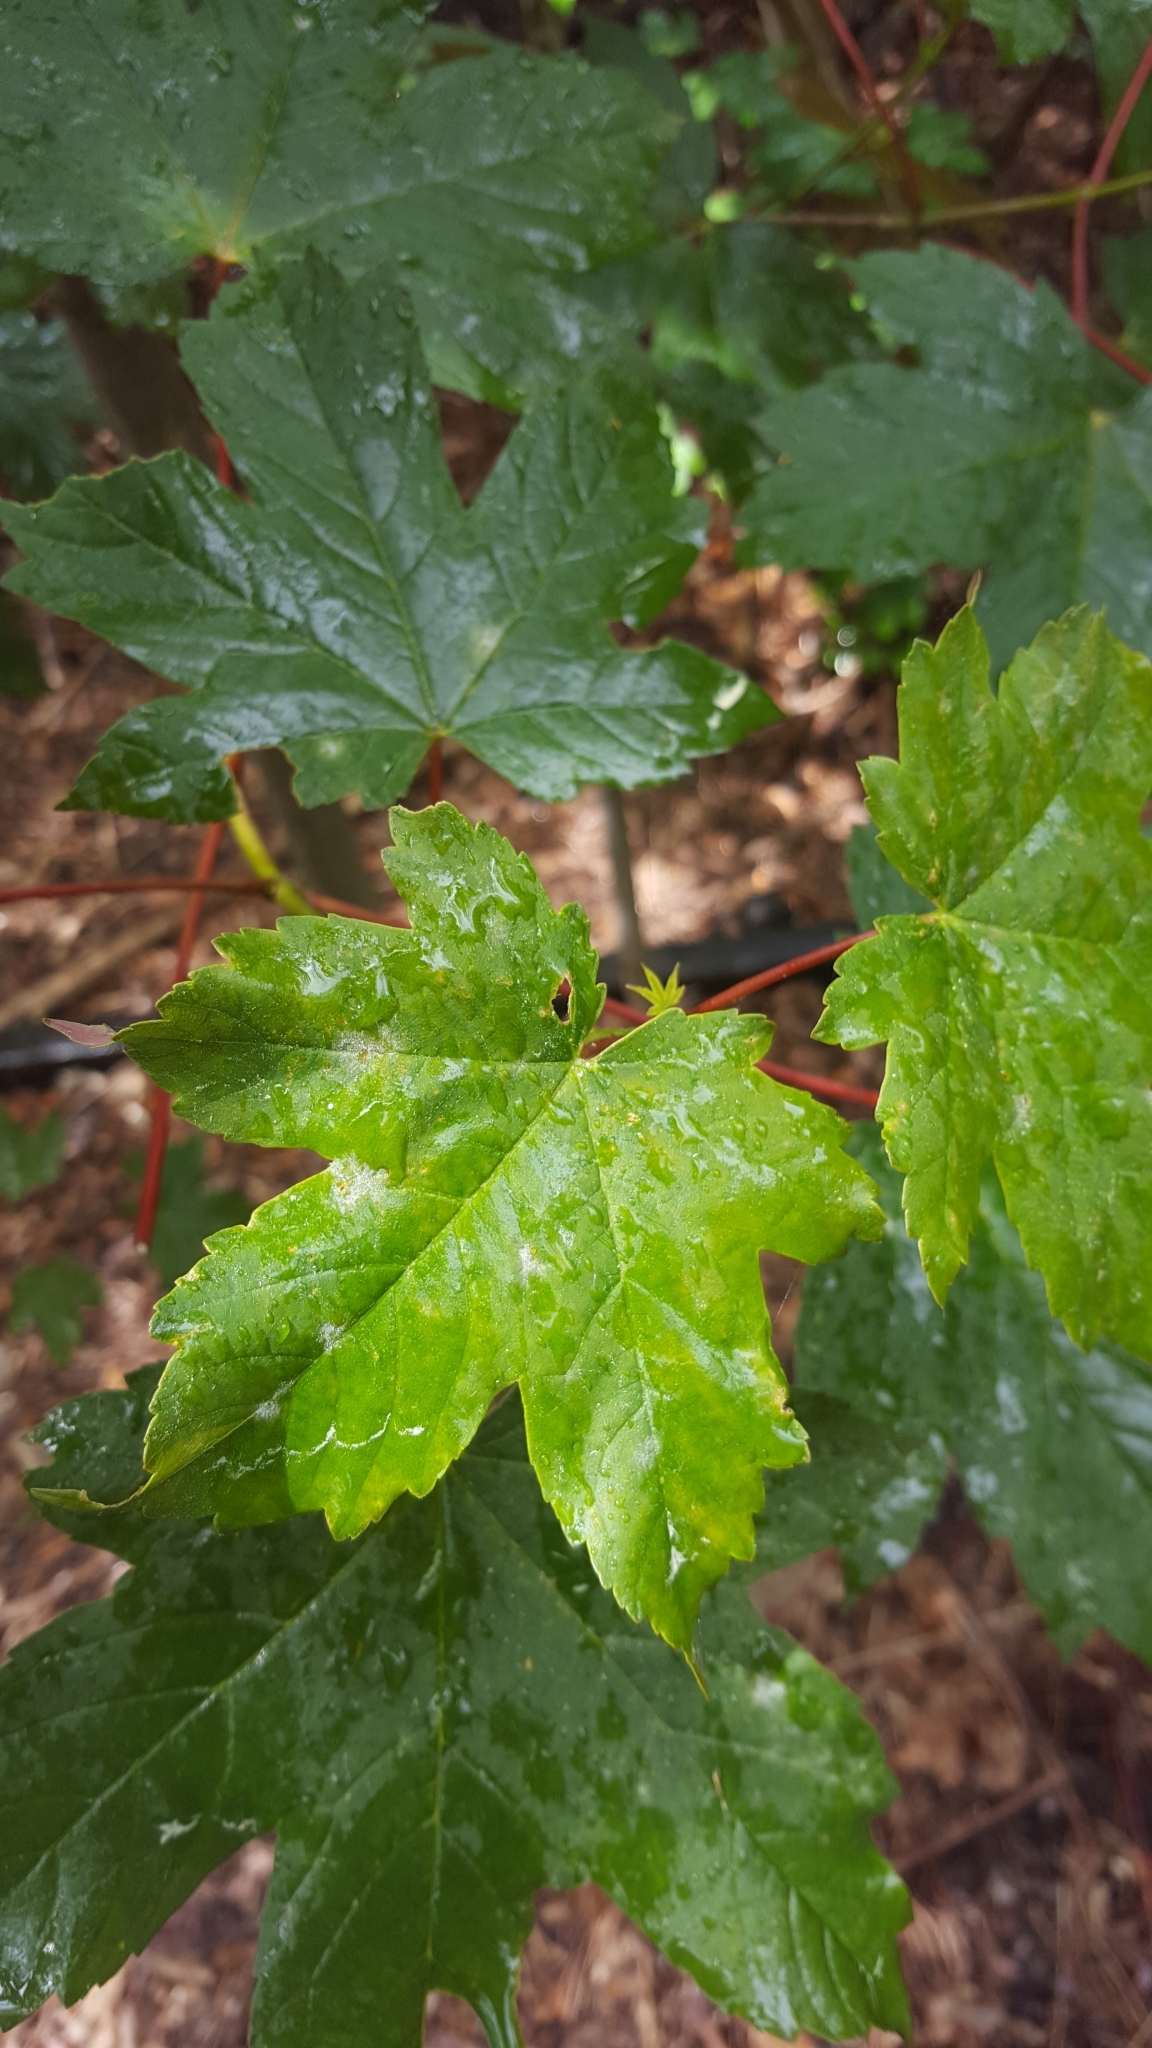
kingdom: Plantae
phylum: Tracheophyta
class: Magnoliopsida
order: Sapindales
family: Sapindaceae
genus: Acer
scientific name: Acer pseudoplatanus
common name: Sycamore
